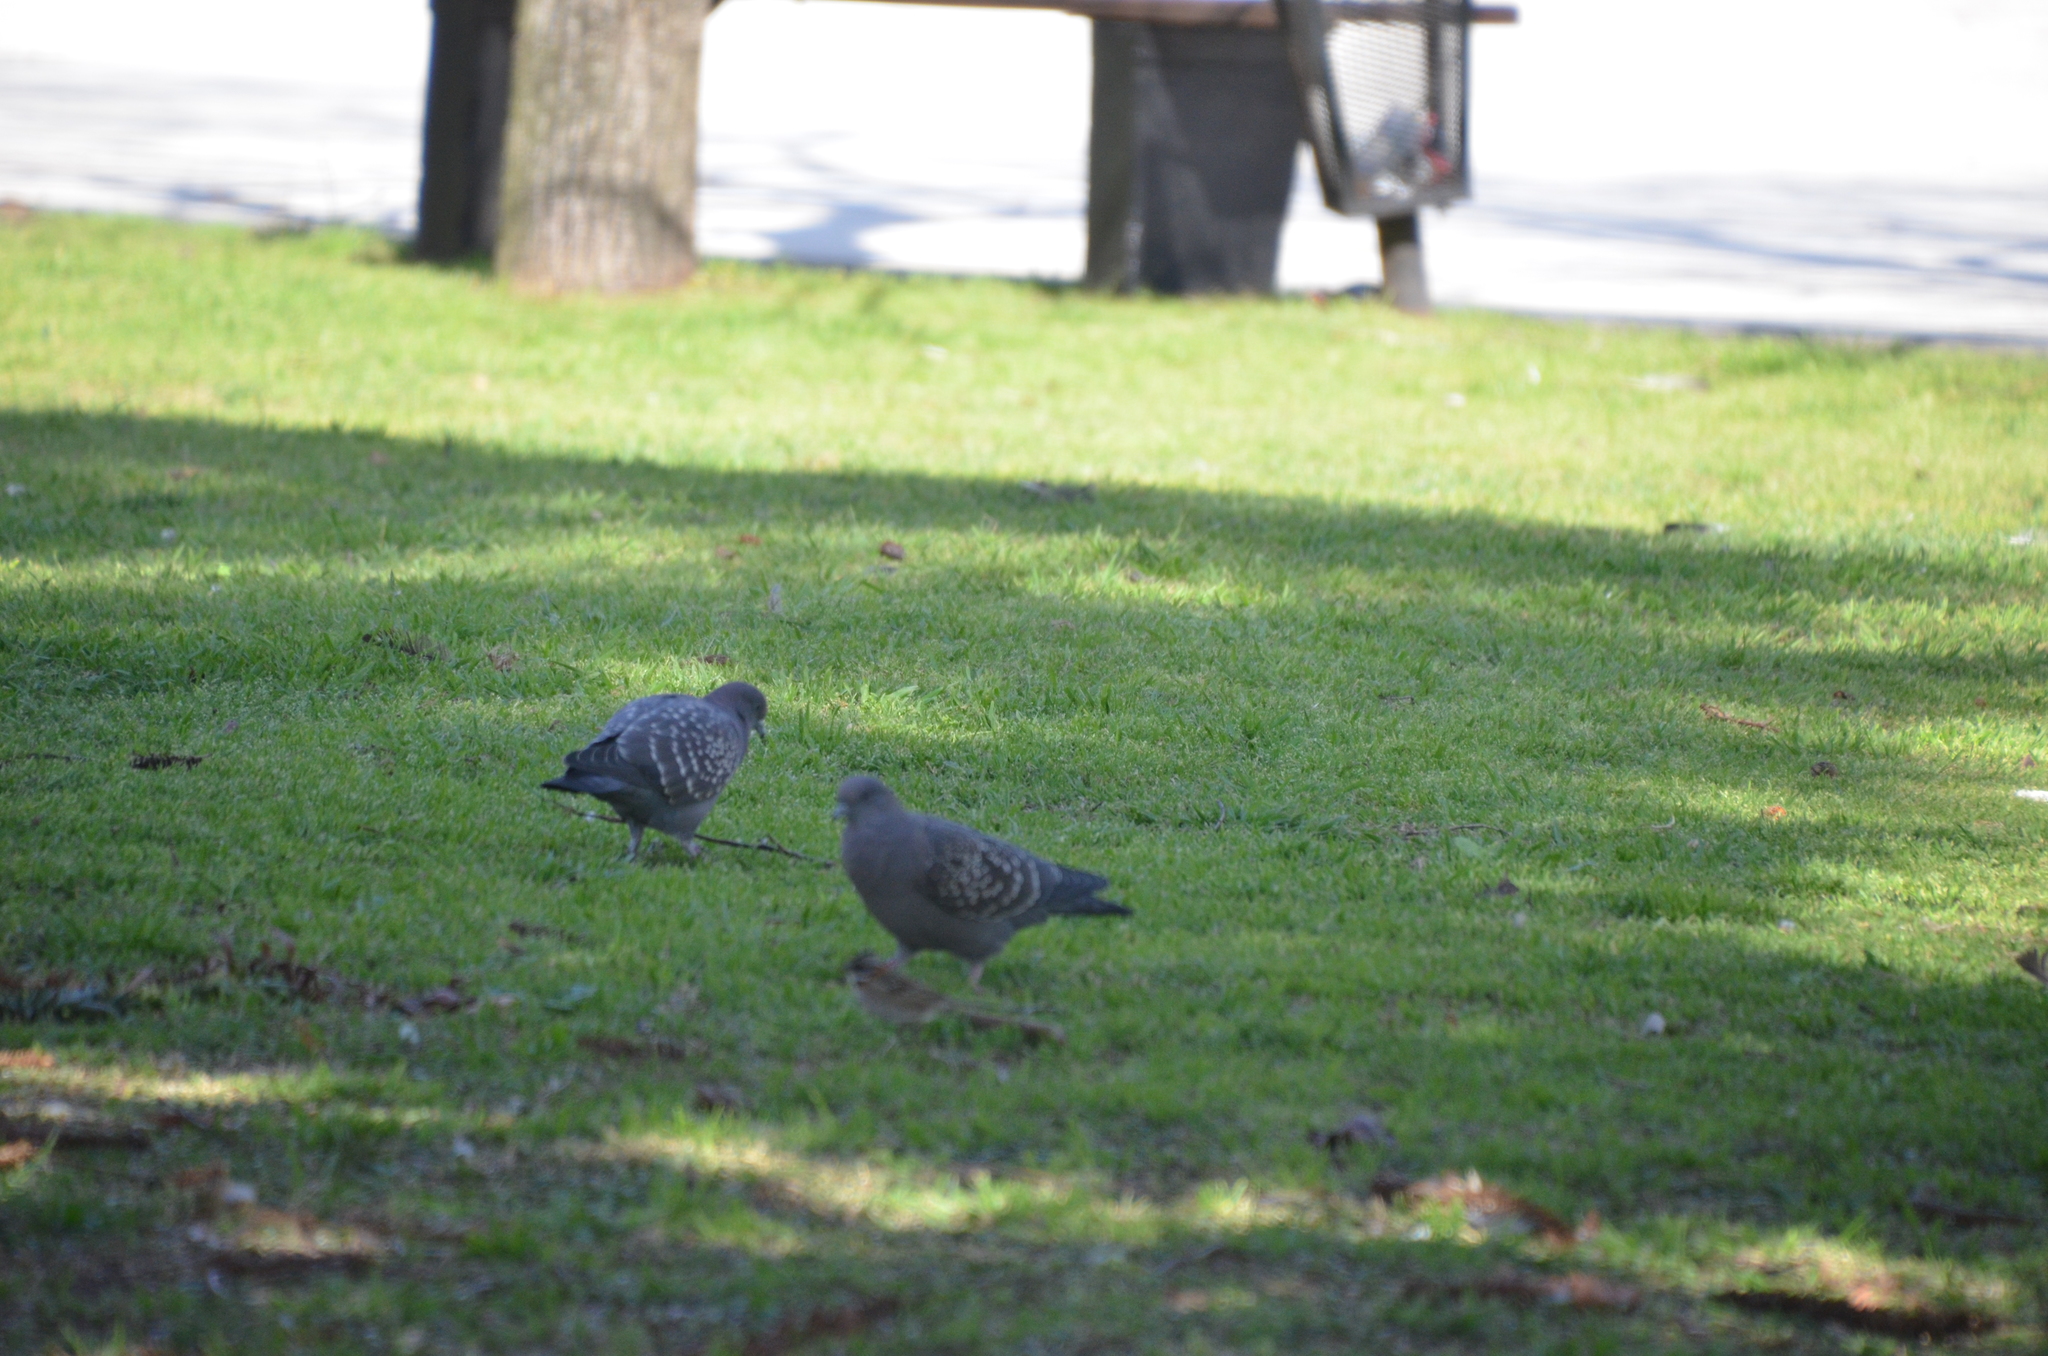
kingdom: Animalia
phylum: Chordata
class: Aves
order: Columbiformes
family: Columbidae
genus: Patagioenas
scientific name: Patagioenas maculosa
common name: Spot-winged pigeon
